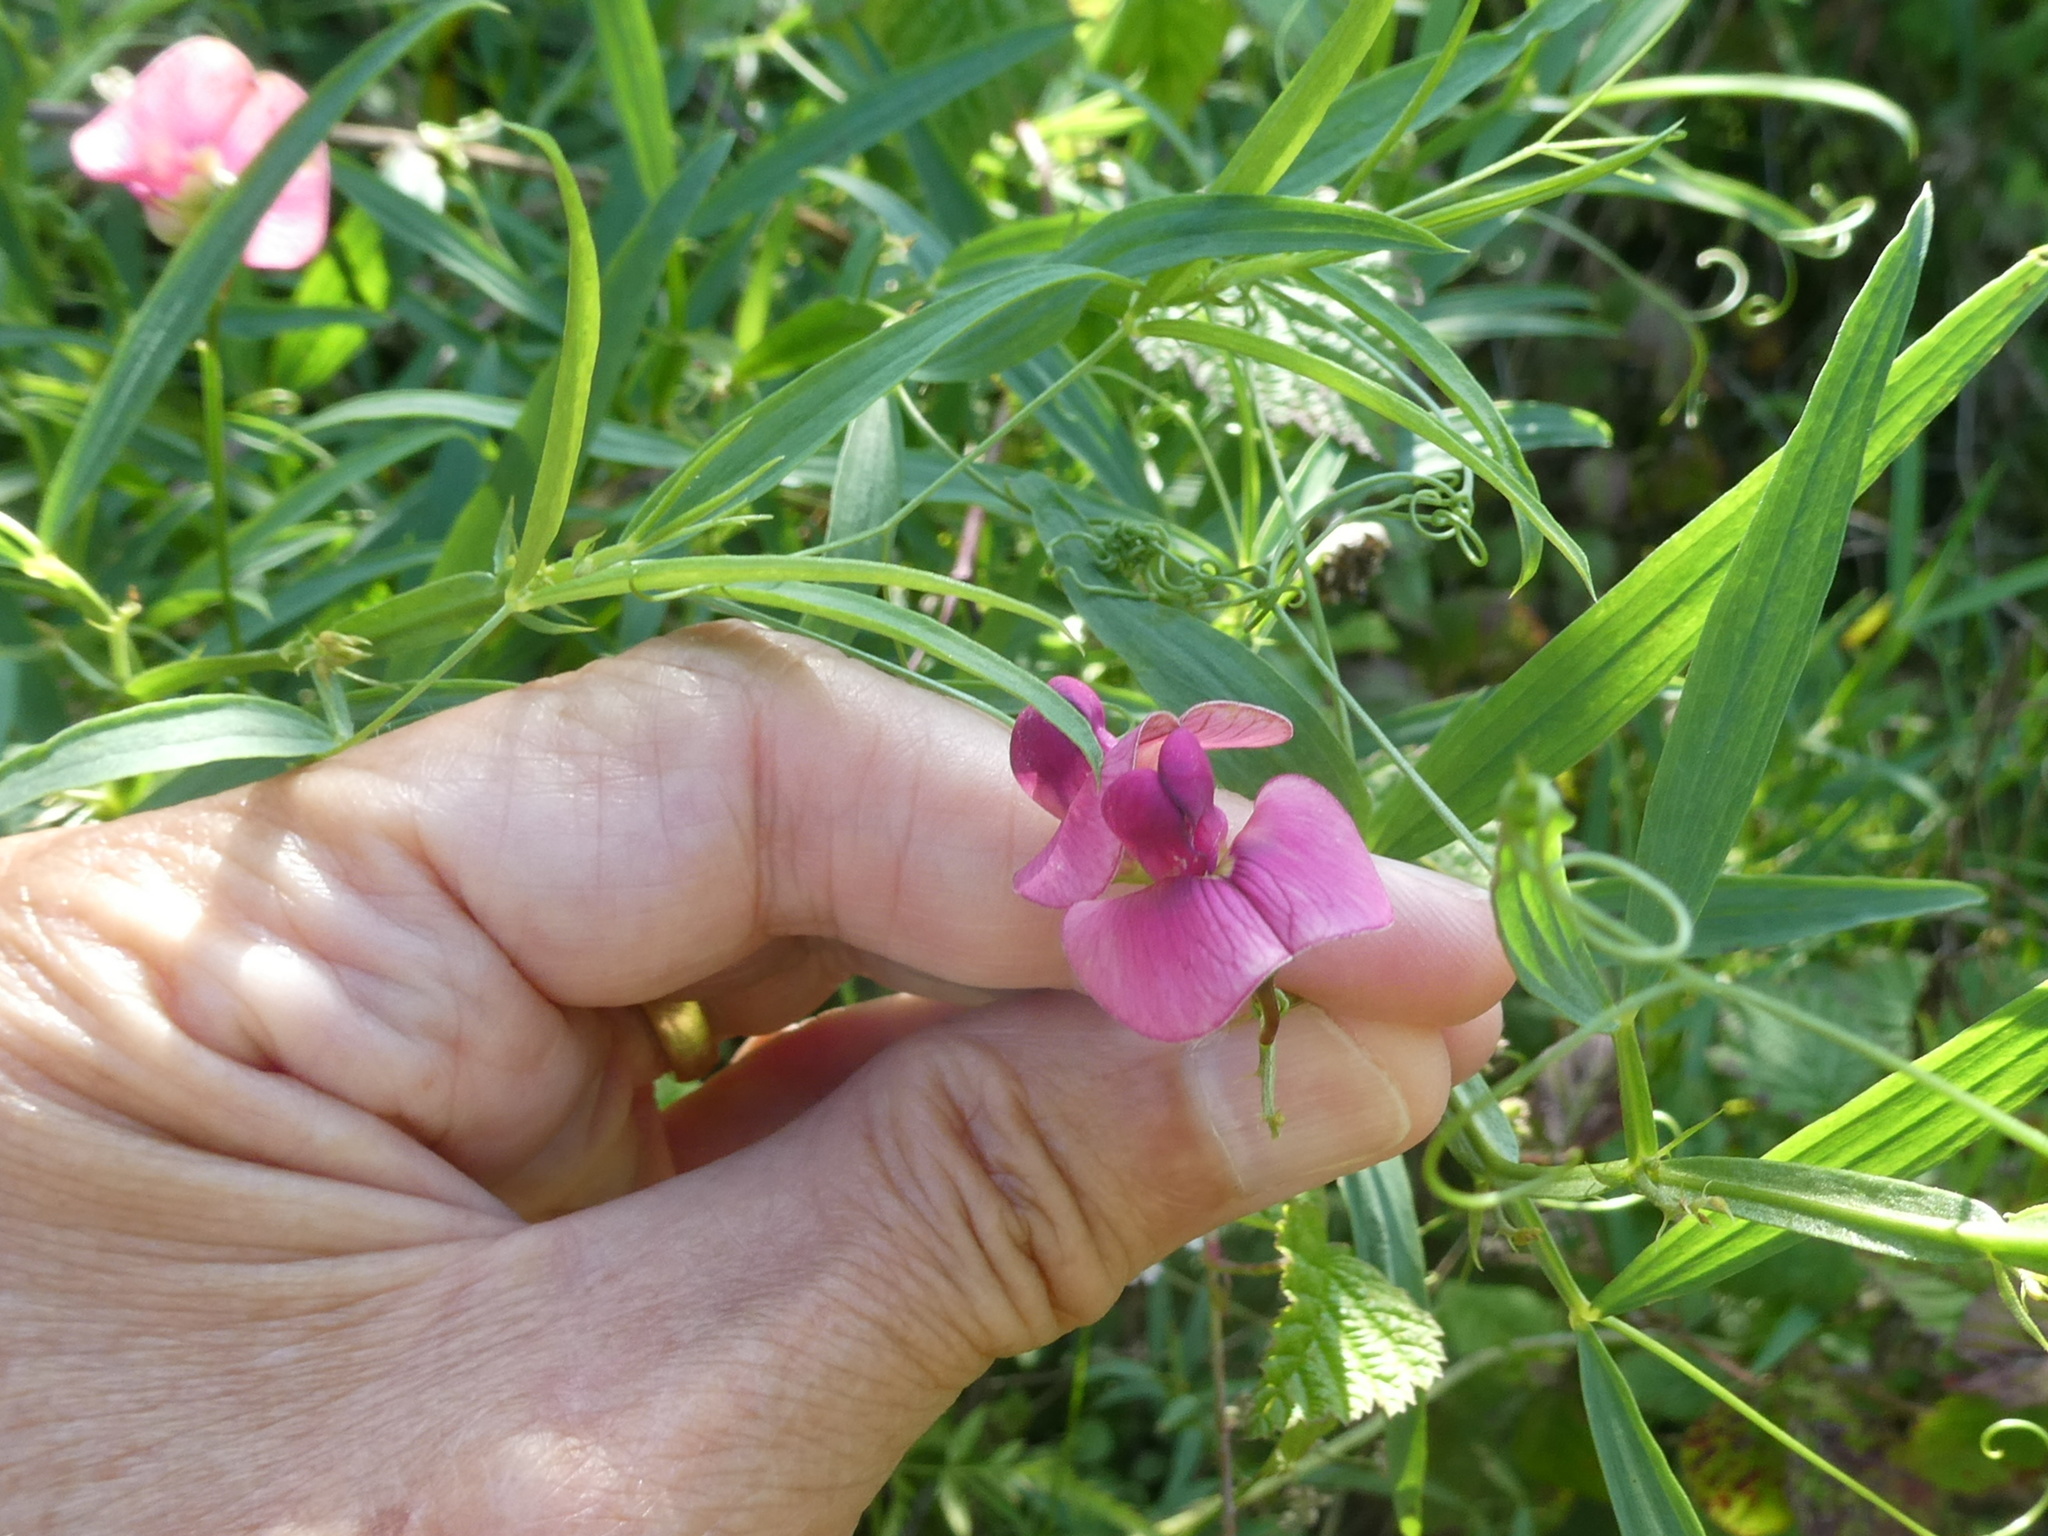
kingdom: Plantae
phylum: Tracheophyta
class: Magnoliopsida
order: Fabales
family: Fabaceae
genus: Lathyrus
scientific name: Lathyrus sylvestris
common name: Flat pea
